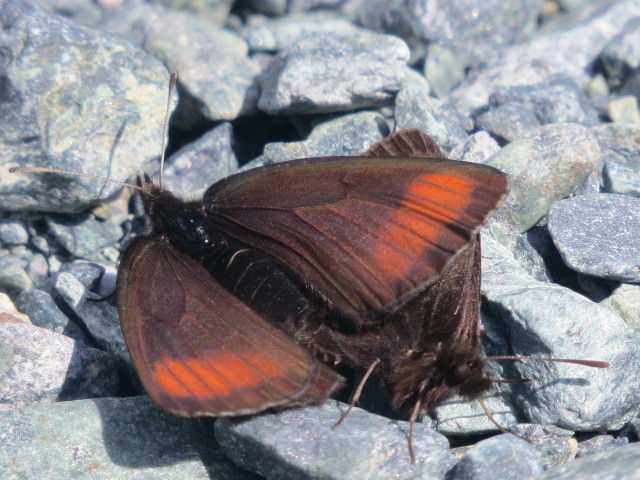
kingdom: Animalia
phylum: Arthropoda
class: Insecta
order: Lepidoptera
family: Nymphalidae
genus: Erebia
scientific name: Erebia pluto
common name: Sooty ringlet
